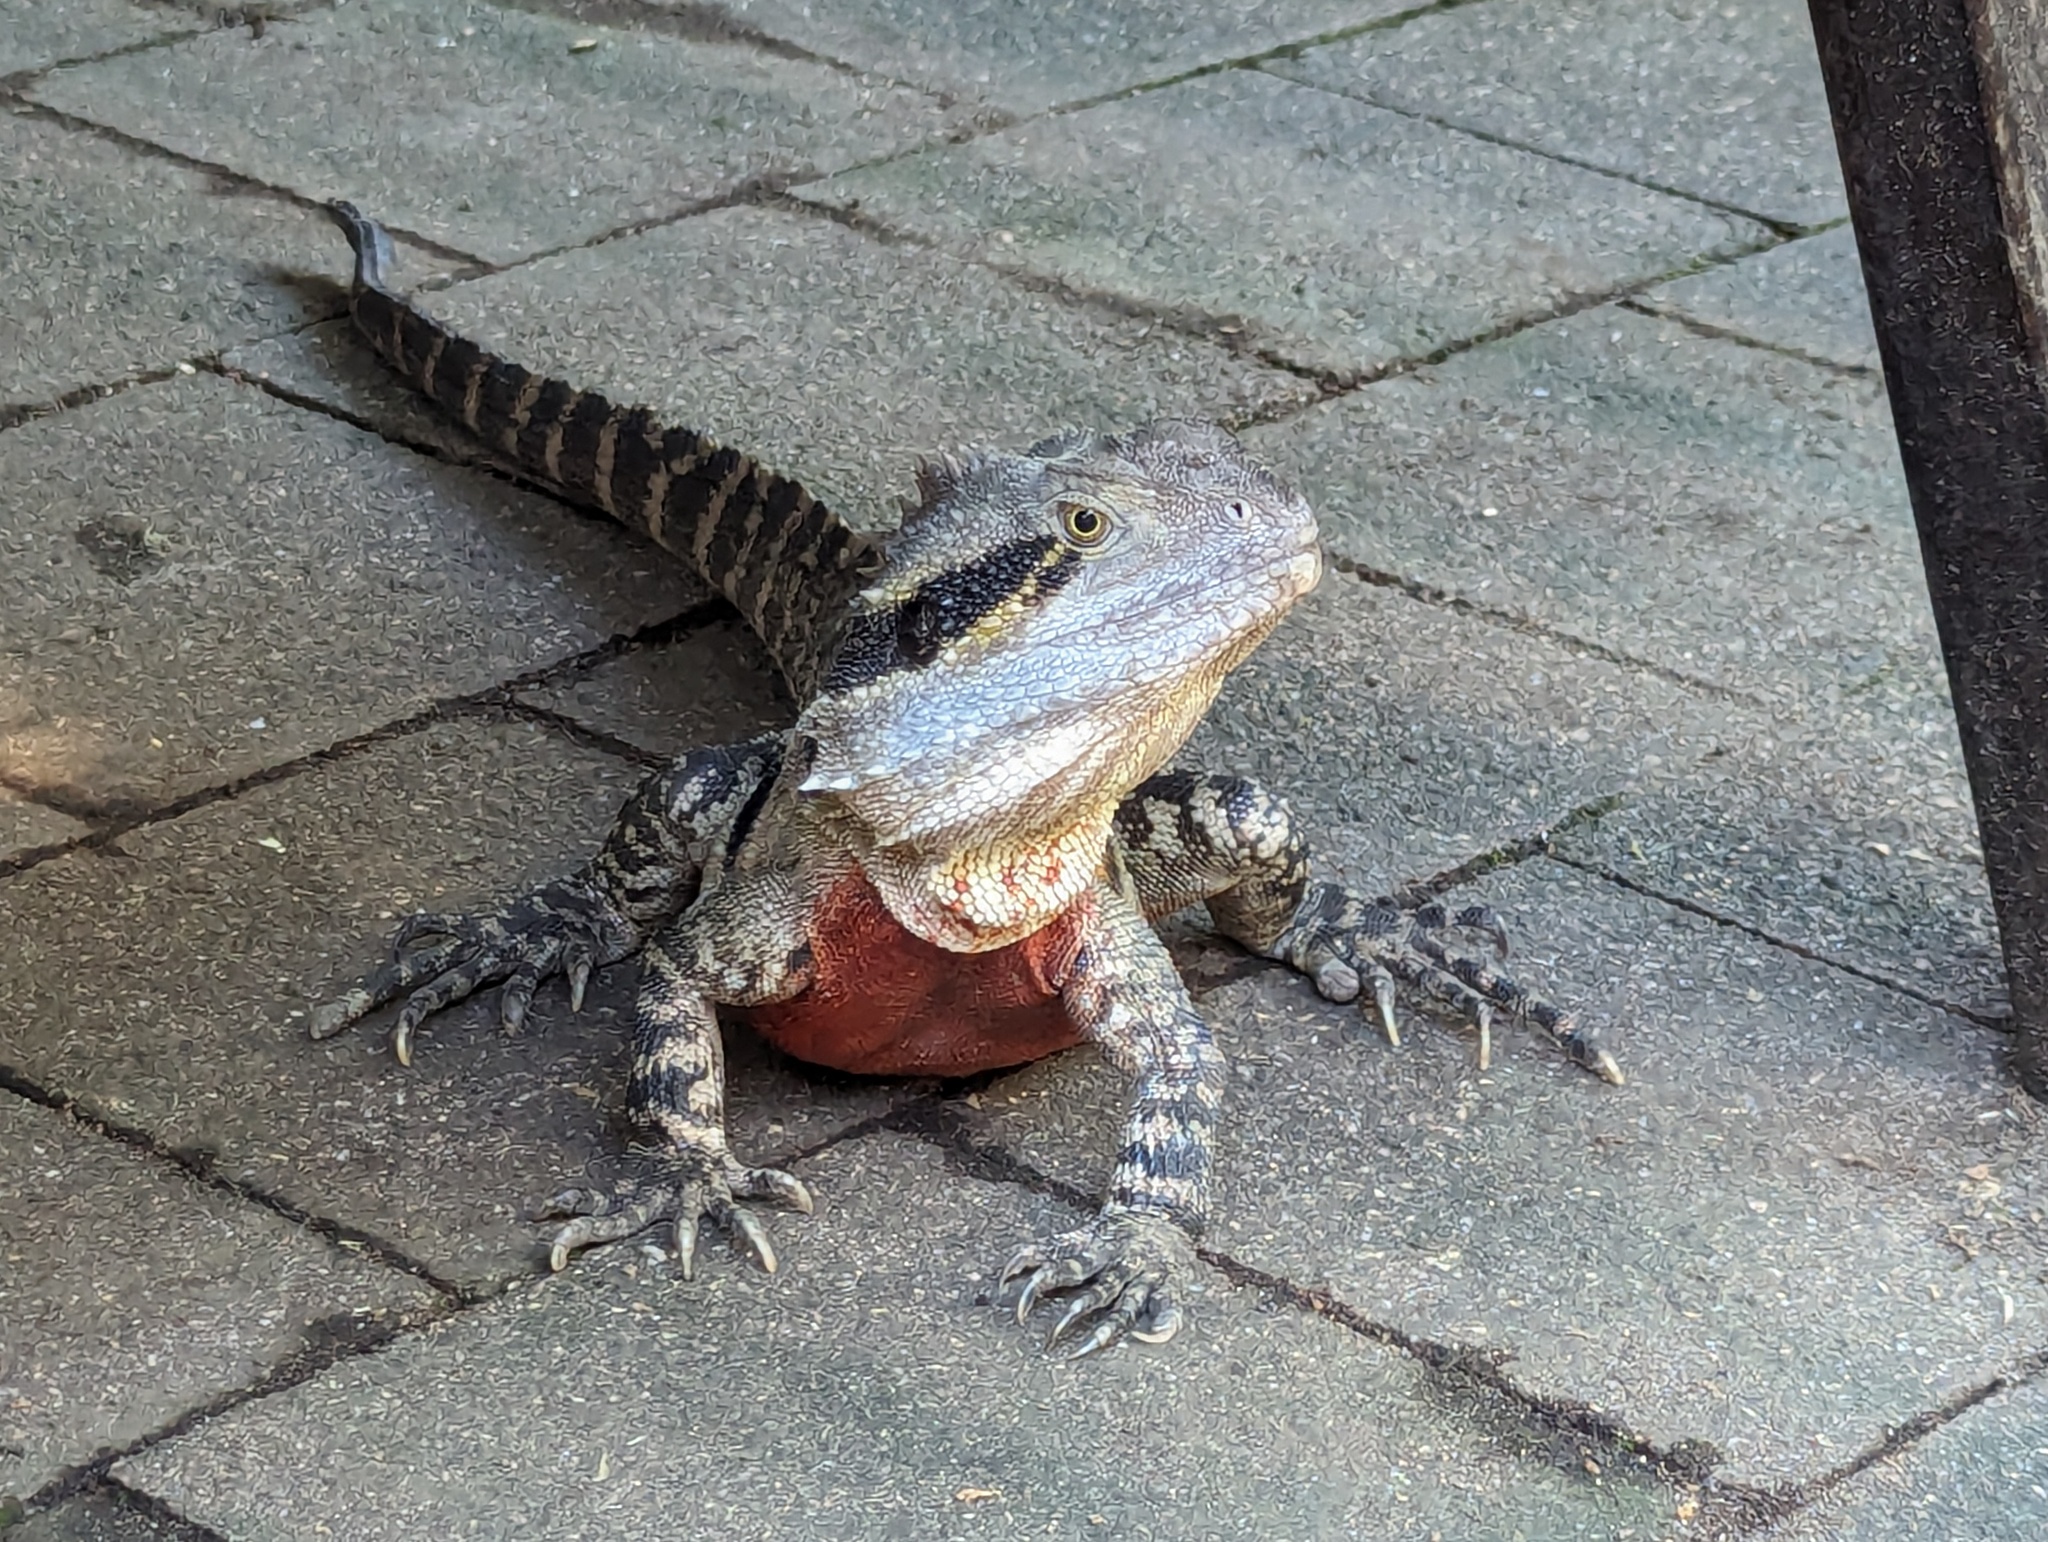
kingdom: Animalia
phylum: Chordata
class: Squamata
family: Agamidae
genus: Intellagama
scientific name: Intellagama lesueurii
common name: Eastern water dragon
